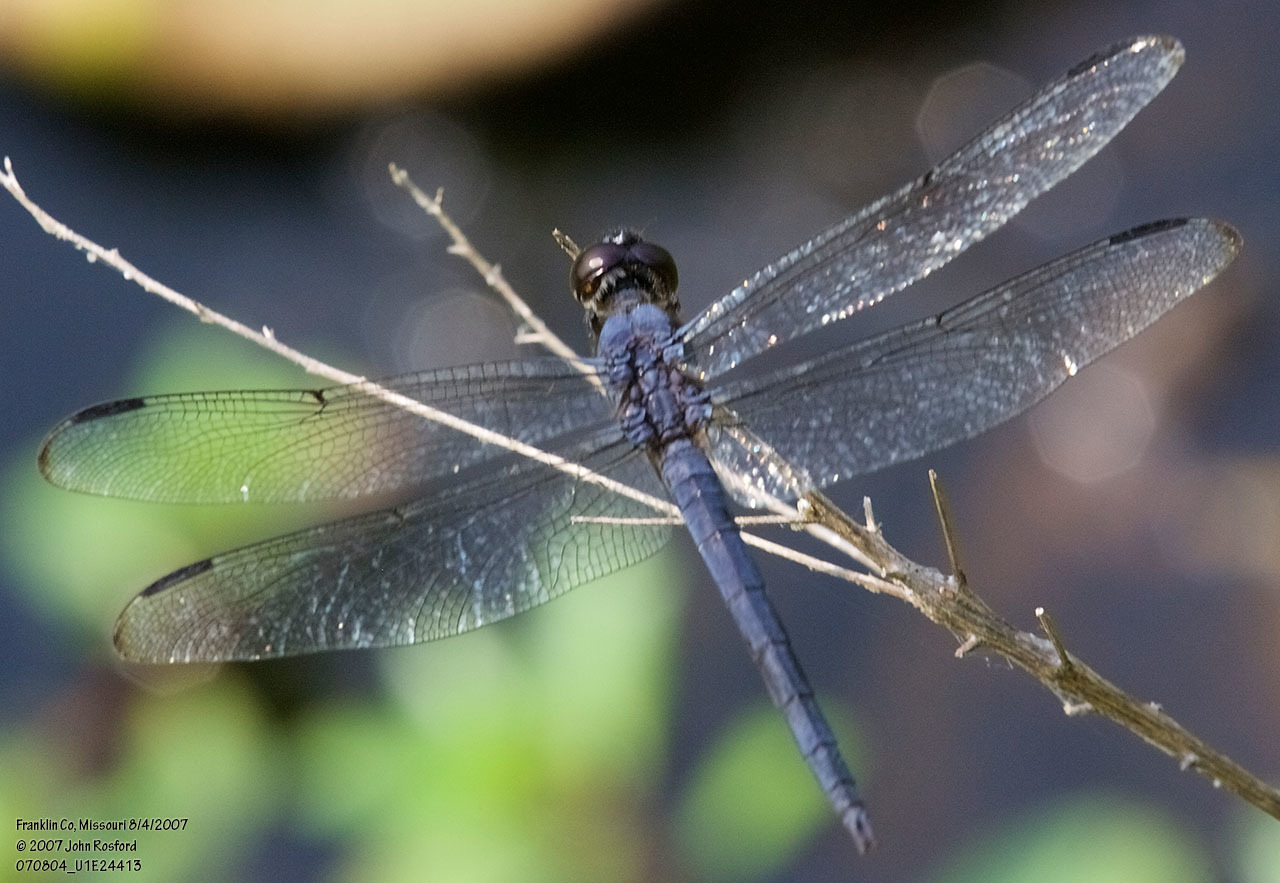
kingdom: Animalia
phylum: Arthropoda
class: Insecta
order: Odonata
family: Libellulidae
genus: Libellula
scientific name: Libellula incesta
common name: Slaty skimmer
